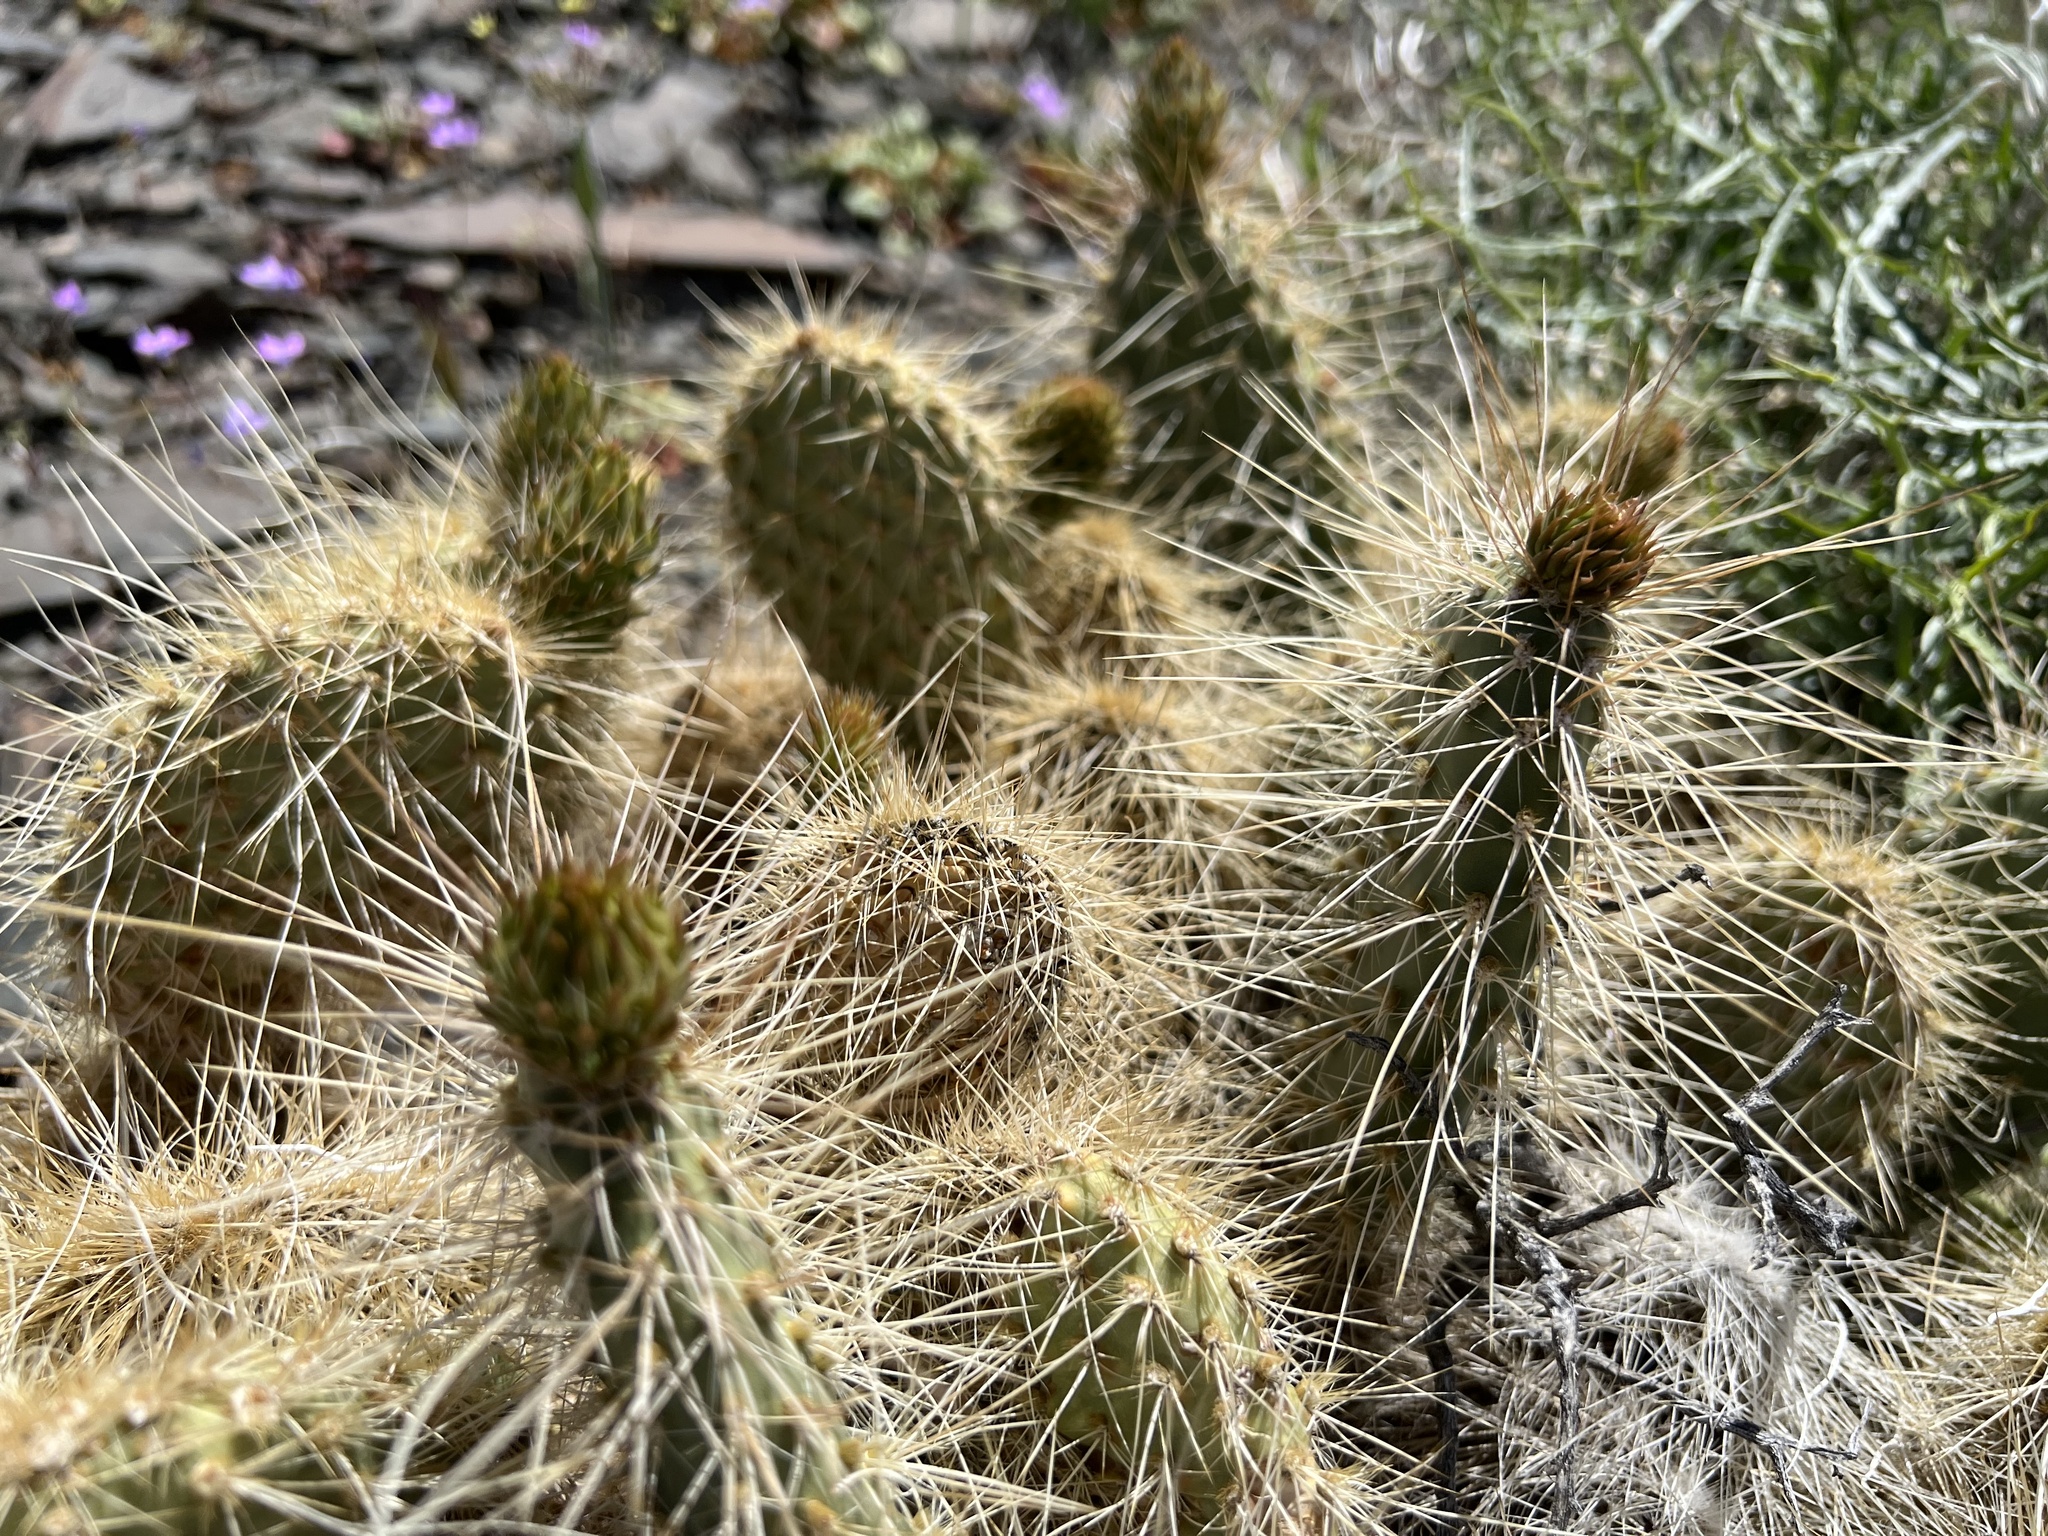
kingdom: Plantae
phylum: Tracheophyta
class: Magnoliopsida
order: Caryophyllales
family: Cactaceae
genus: Opuntia
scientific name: Opuntia polyacantha
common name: Plains prickly-pear
